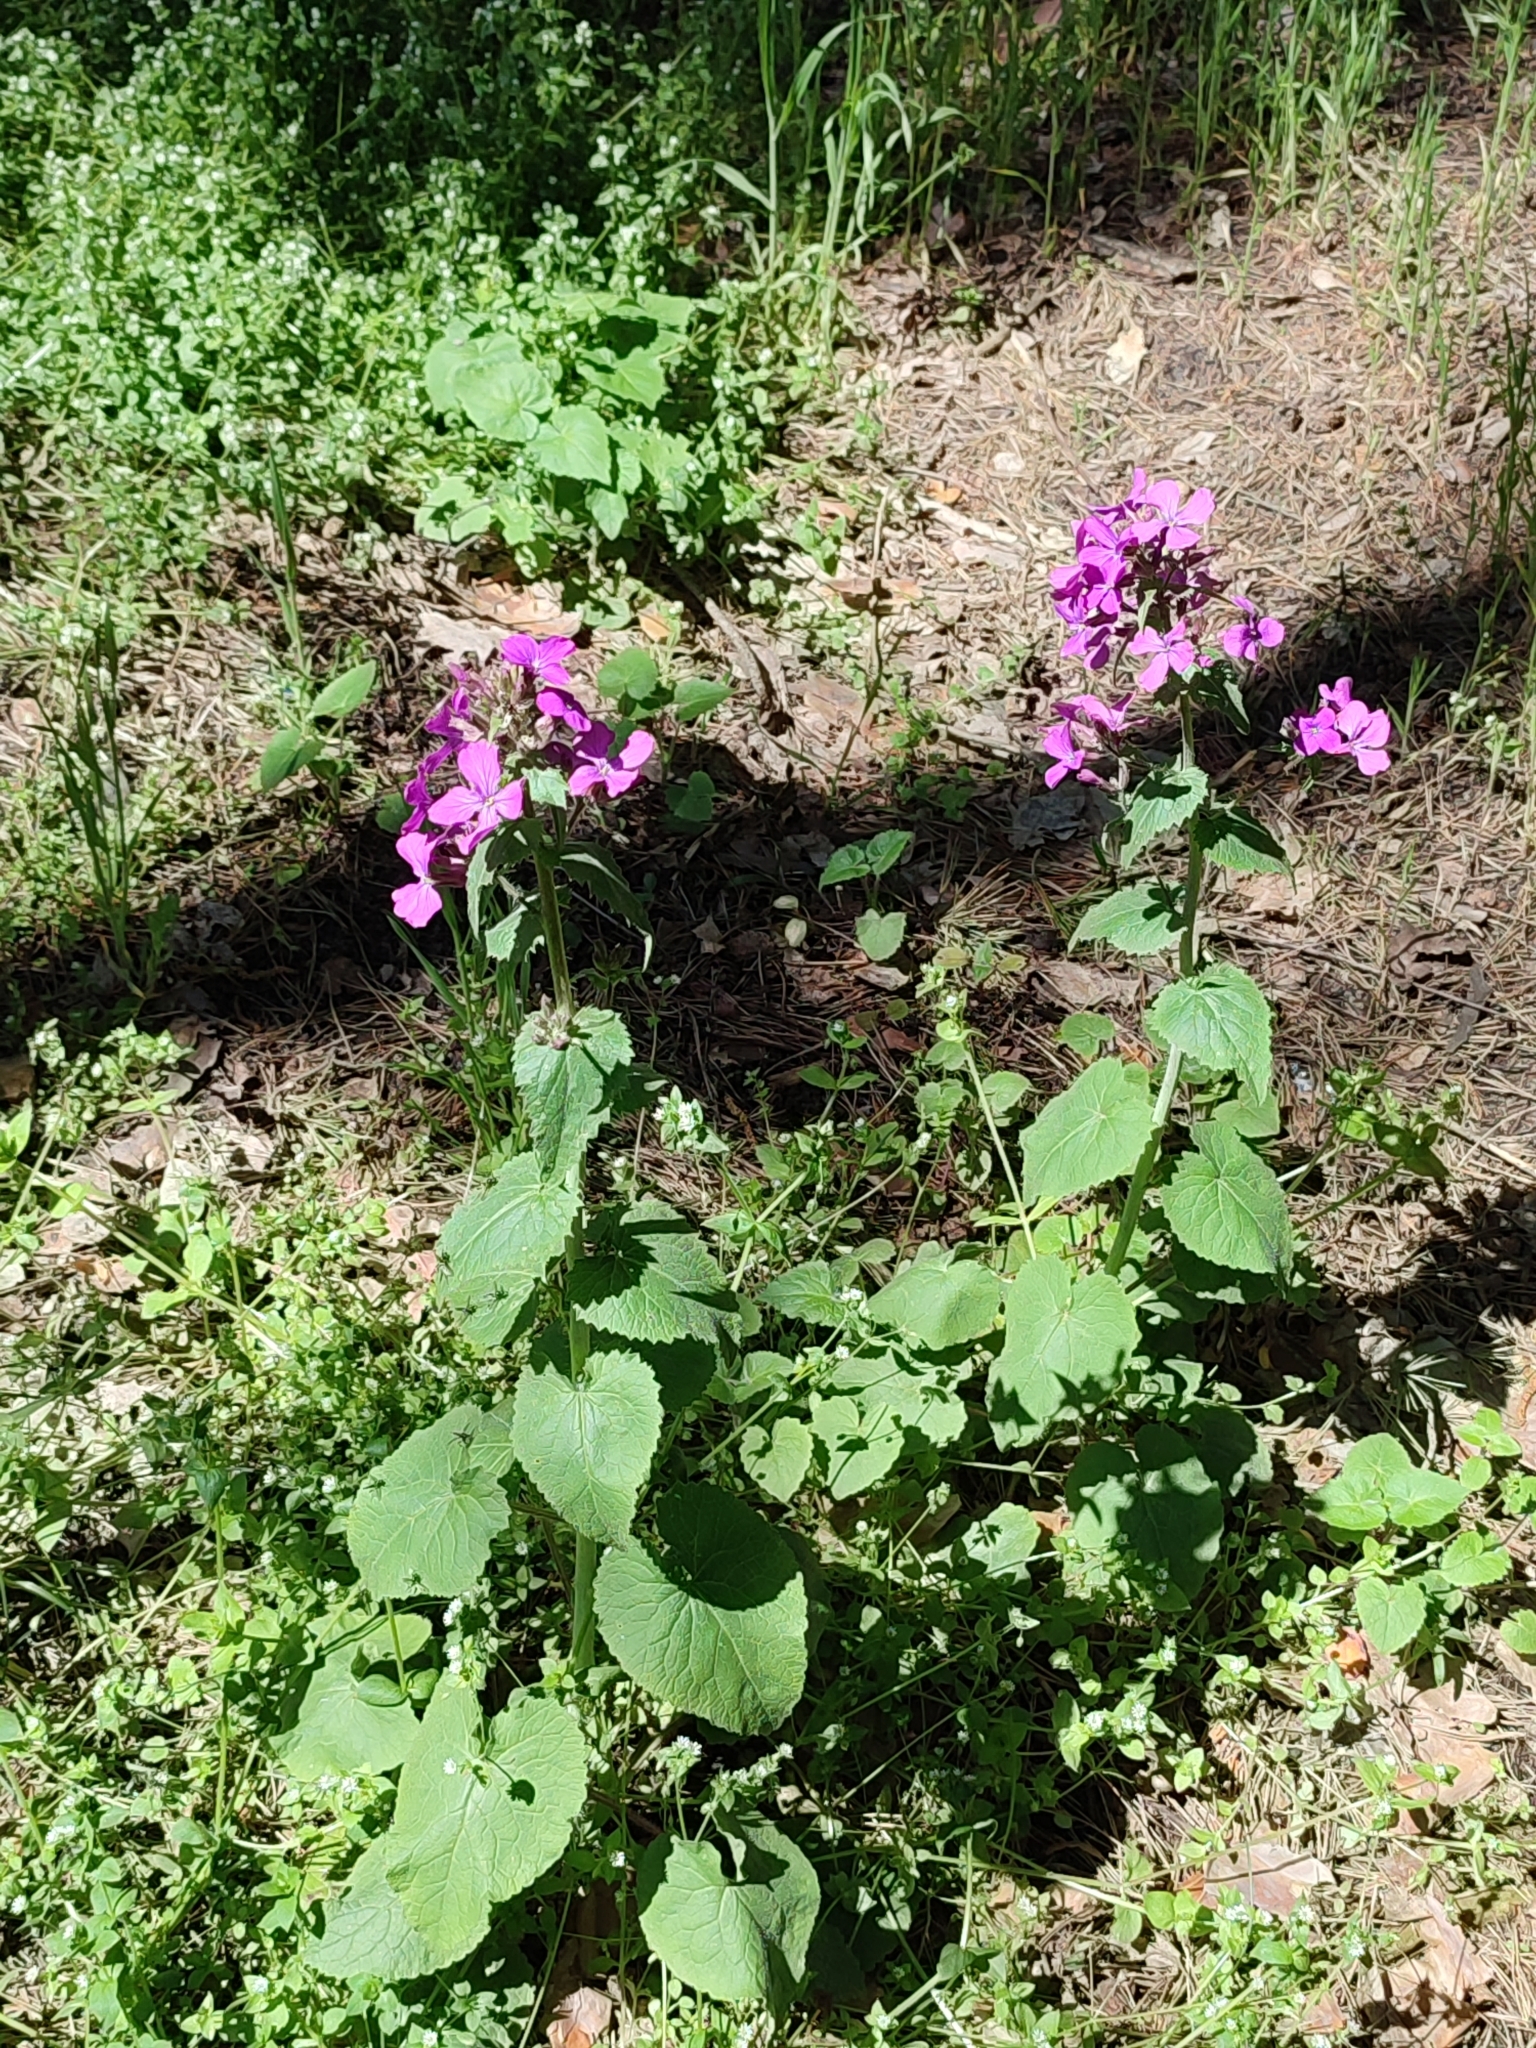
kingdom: Plantae
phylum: Tracheophyta
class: Magnoliopsida
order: Brassicales
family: Brassicaceae
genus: Lunaria
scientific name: Lunaria annua
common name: Honesty
